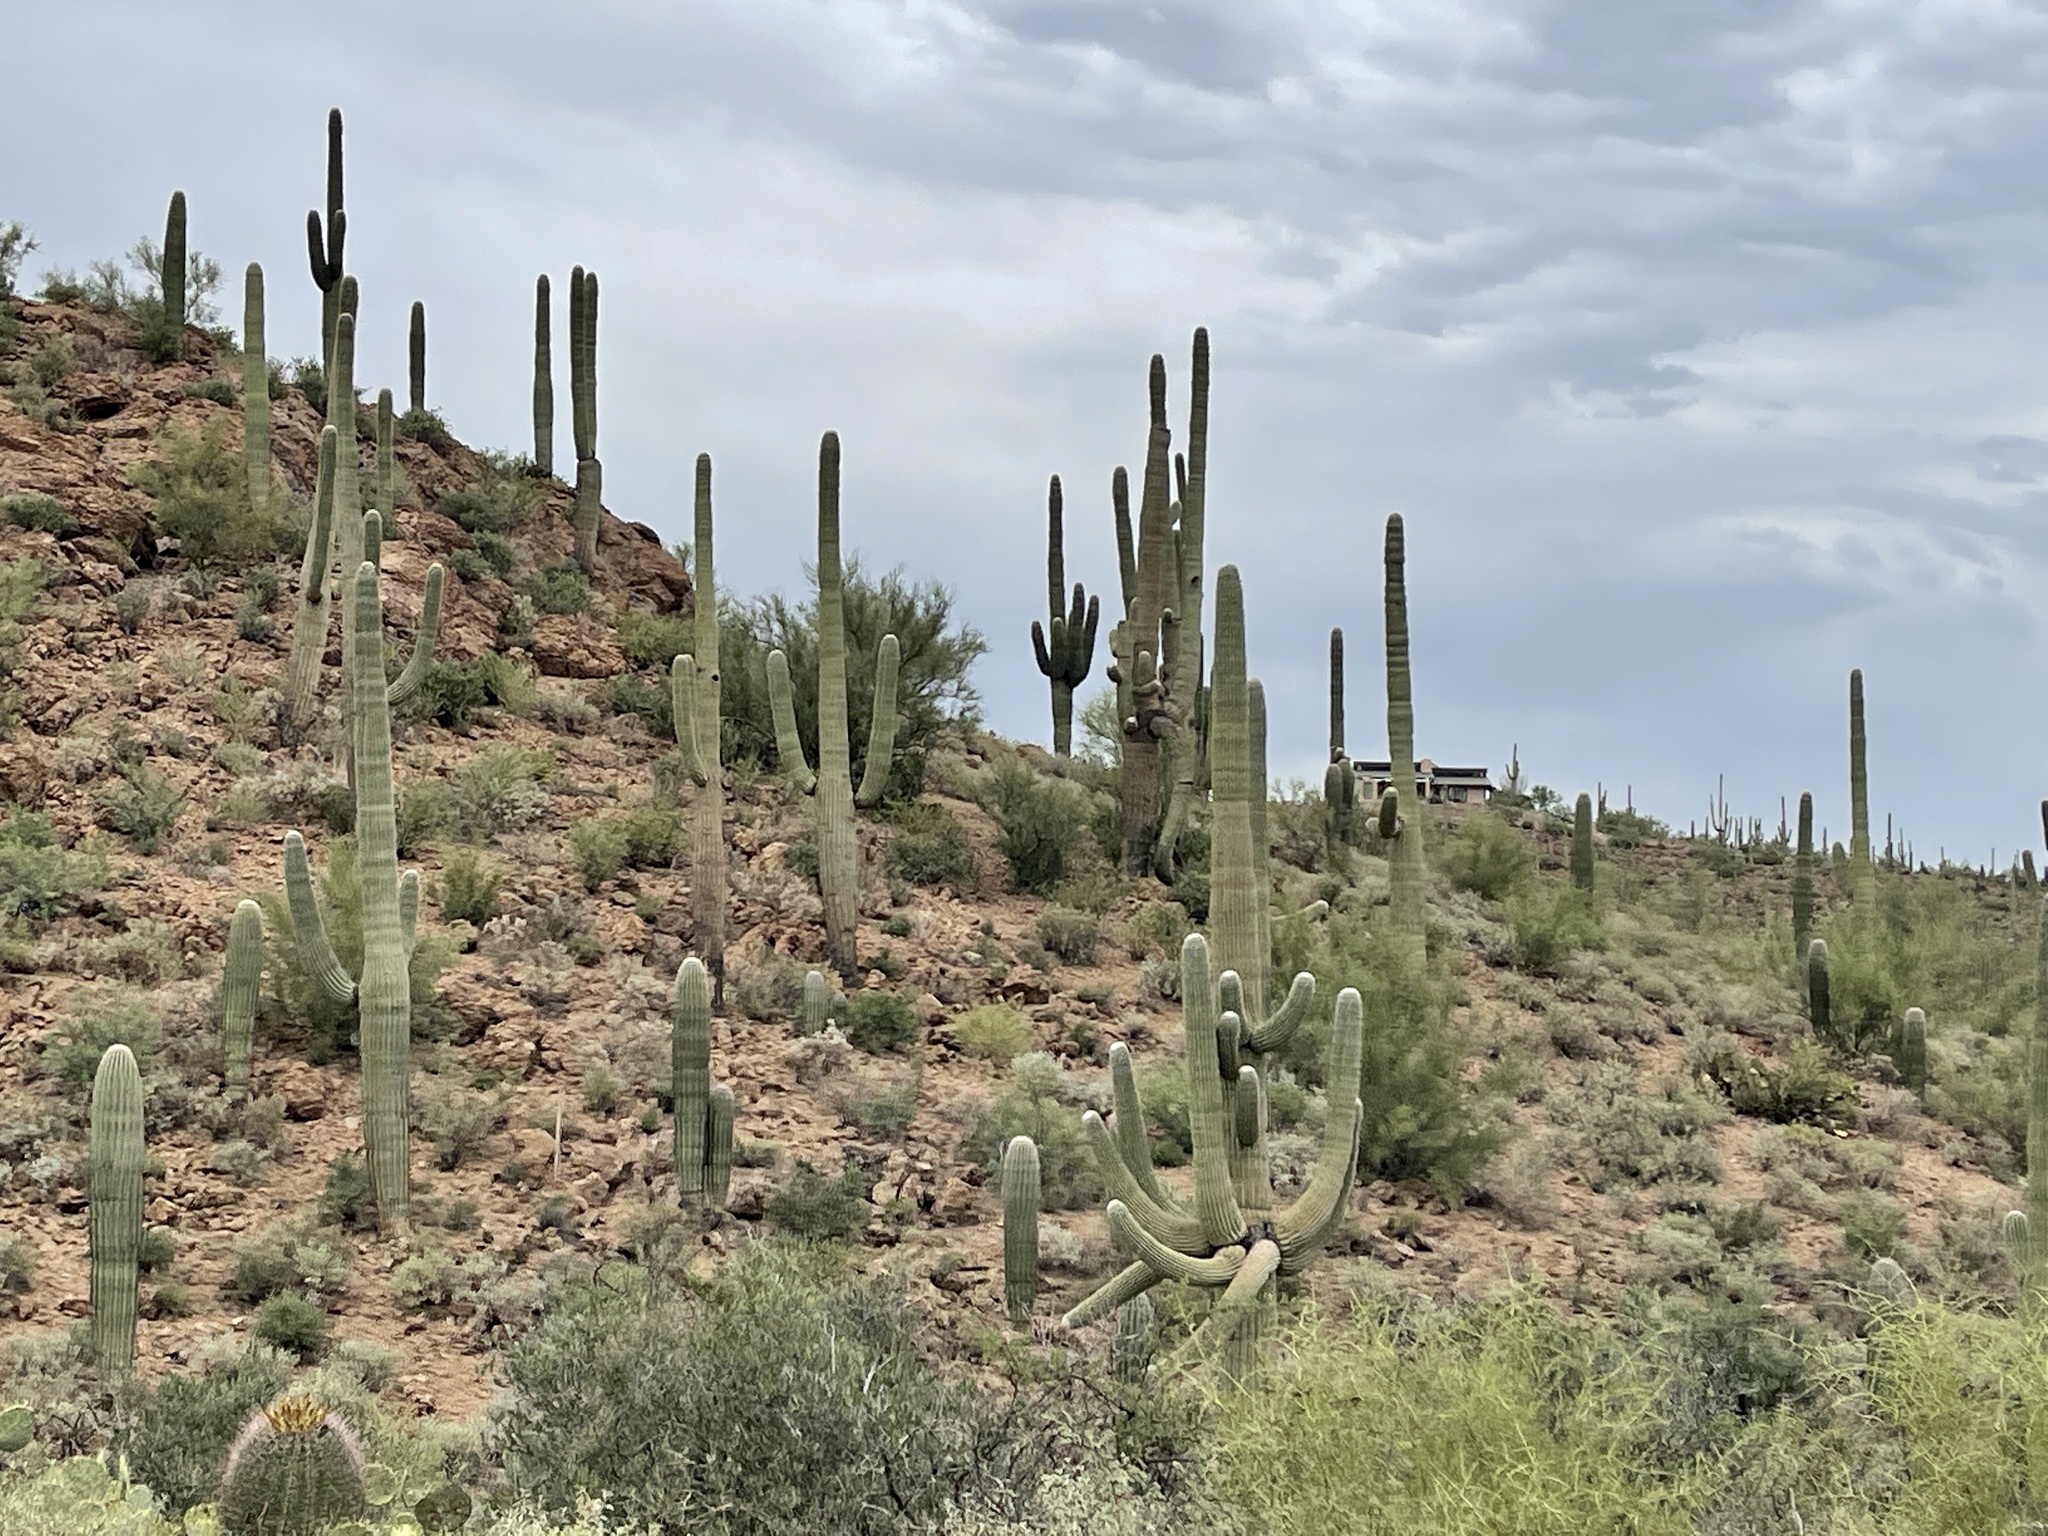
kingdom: Plantae
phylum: Tracheophyta
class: Magnoliopsida
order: Caryophyllales
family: Cactaceae
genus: Carnegiea
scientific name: Carnegiea gigantea
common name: Saguaro
